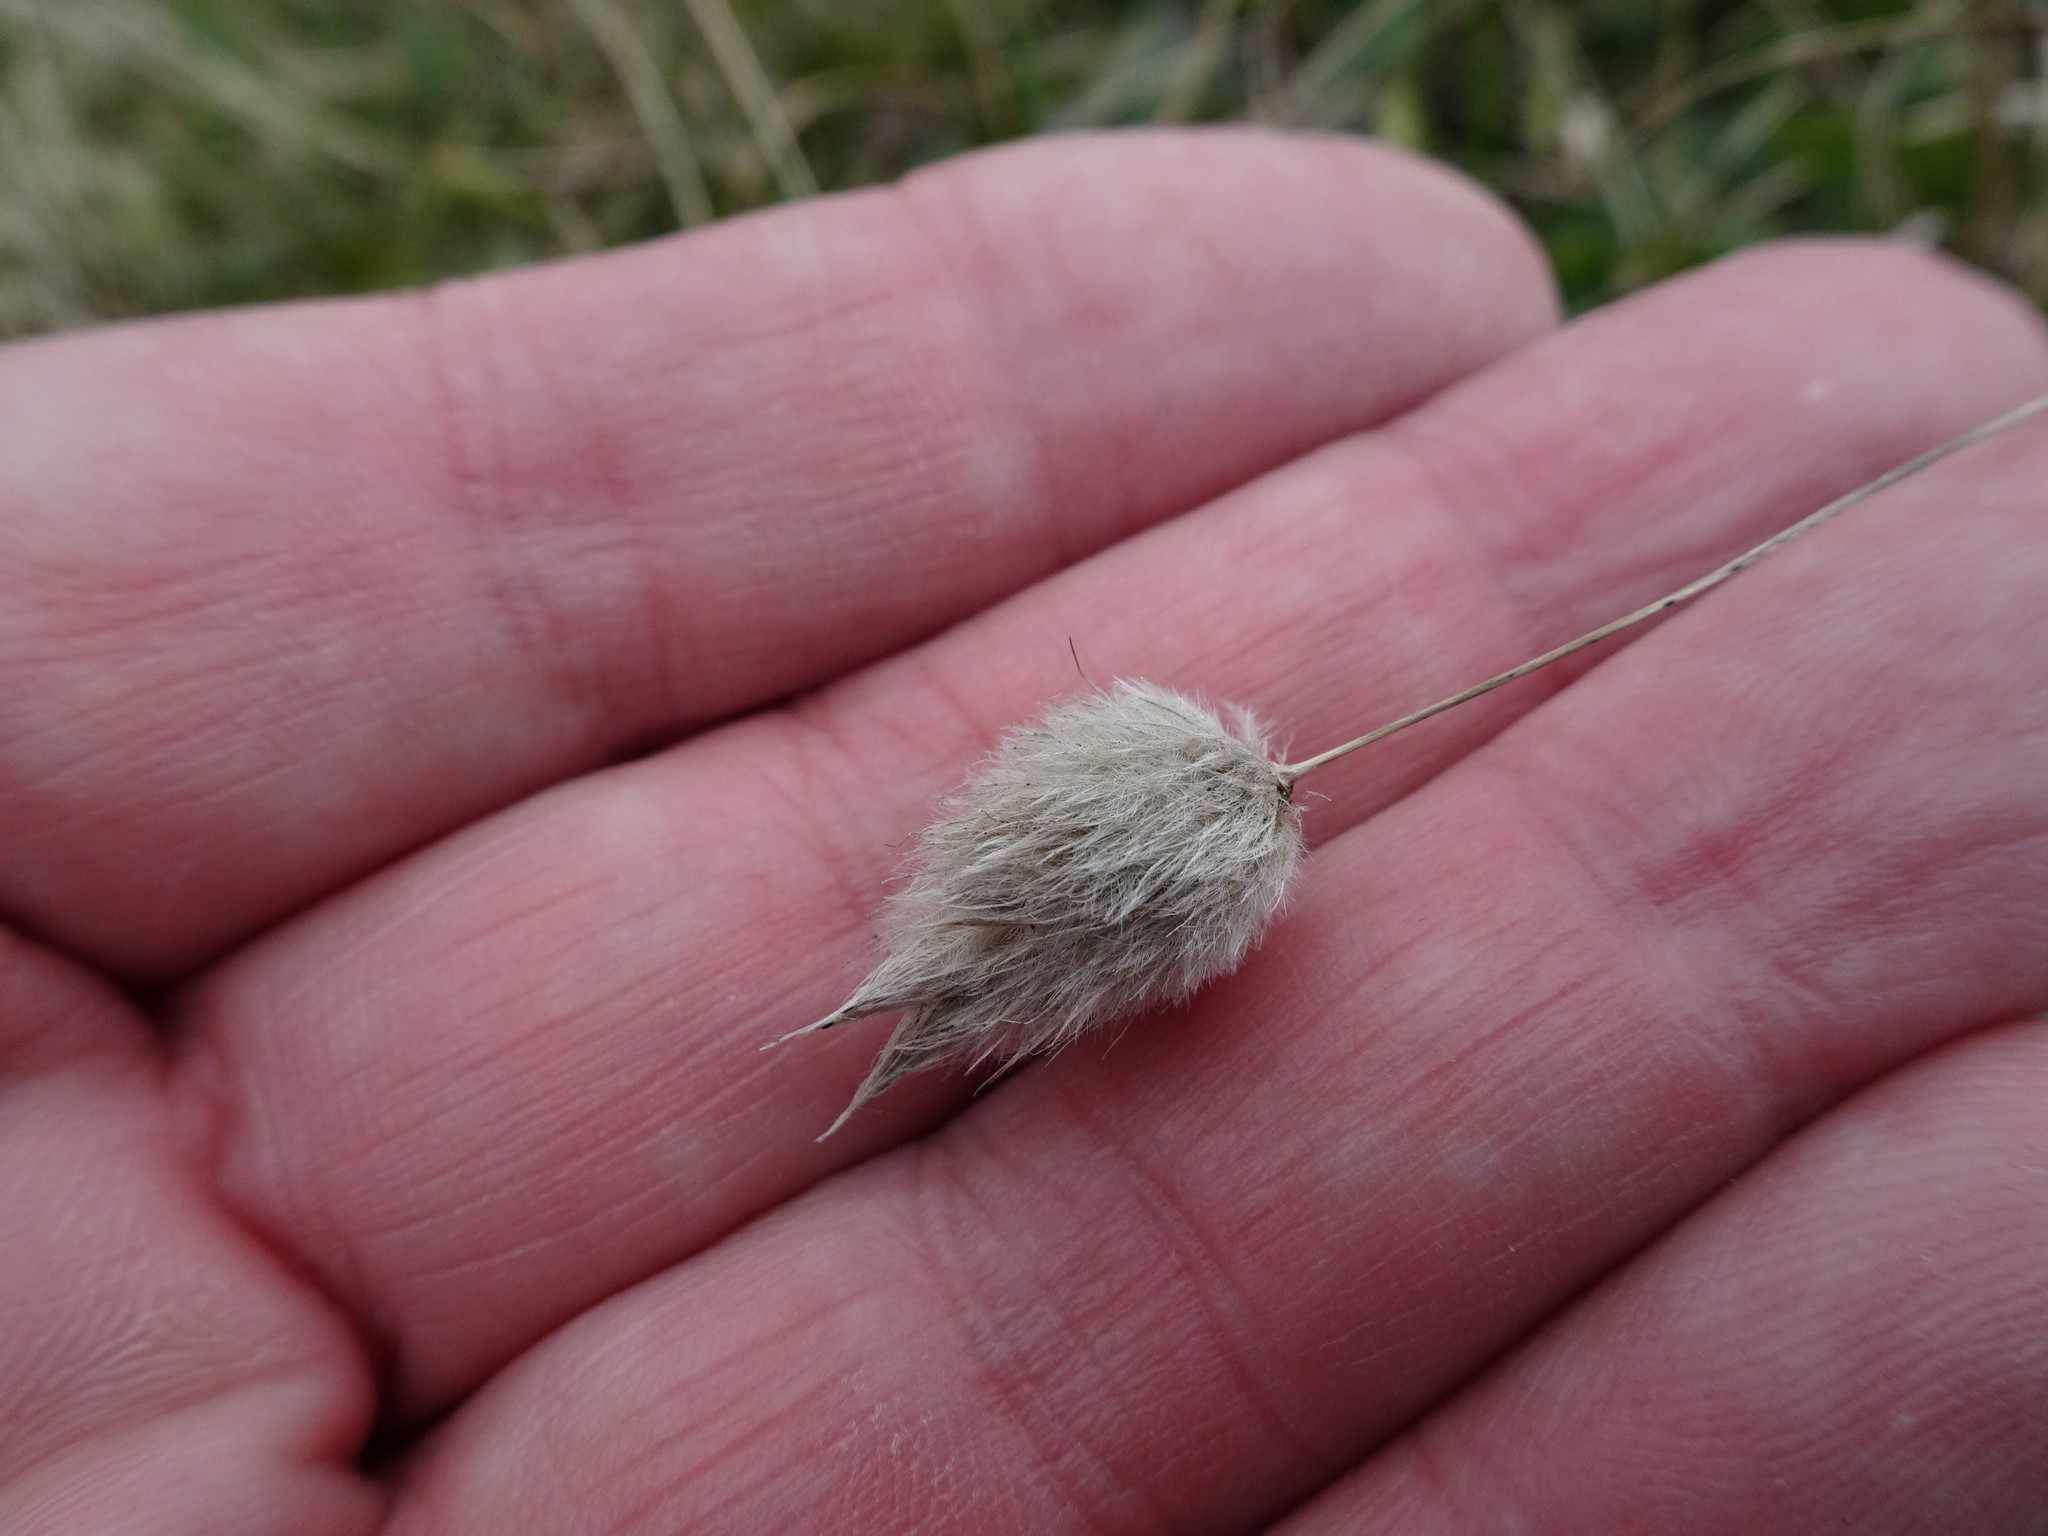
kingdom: Plantae
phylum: Tracheophyta
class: Liliopsida
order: Poales
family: Poaceae
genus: Lagurus
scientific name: Lagurus ovatus
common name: Hare's-tail
